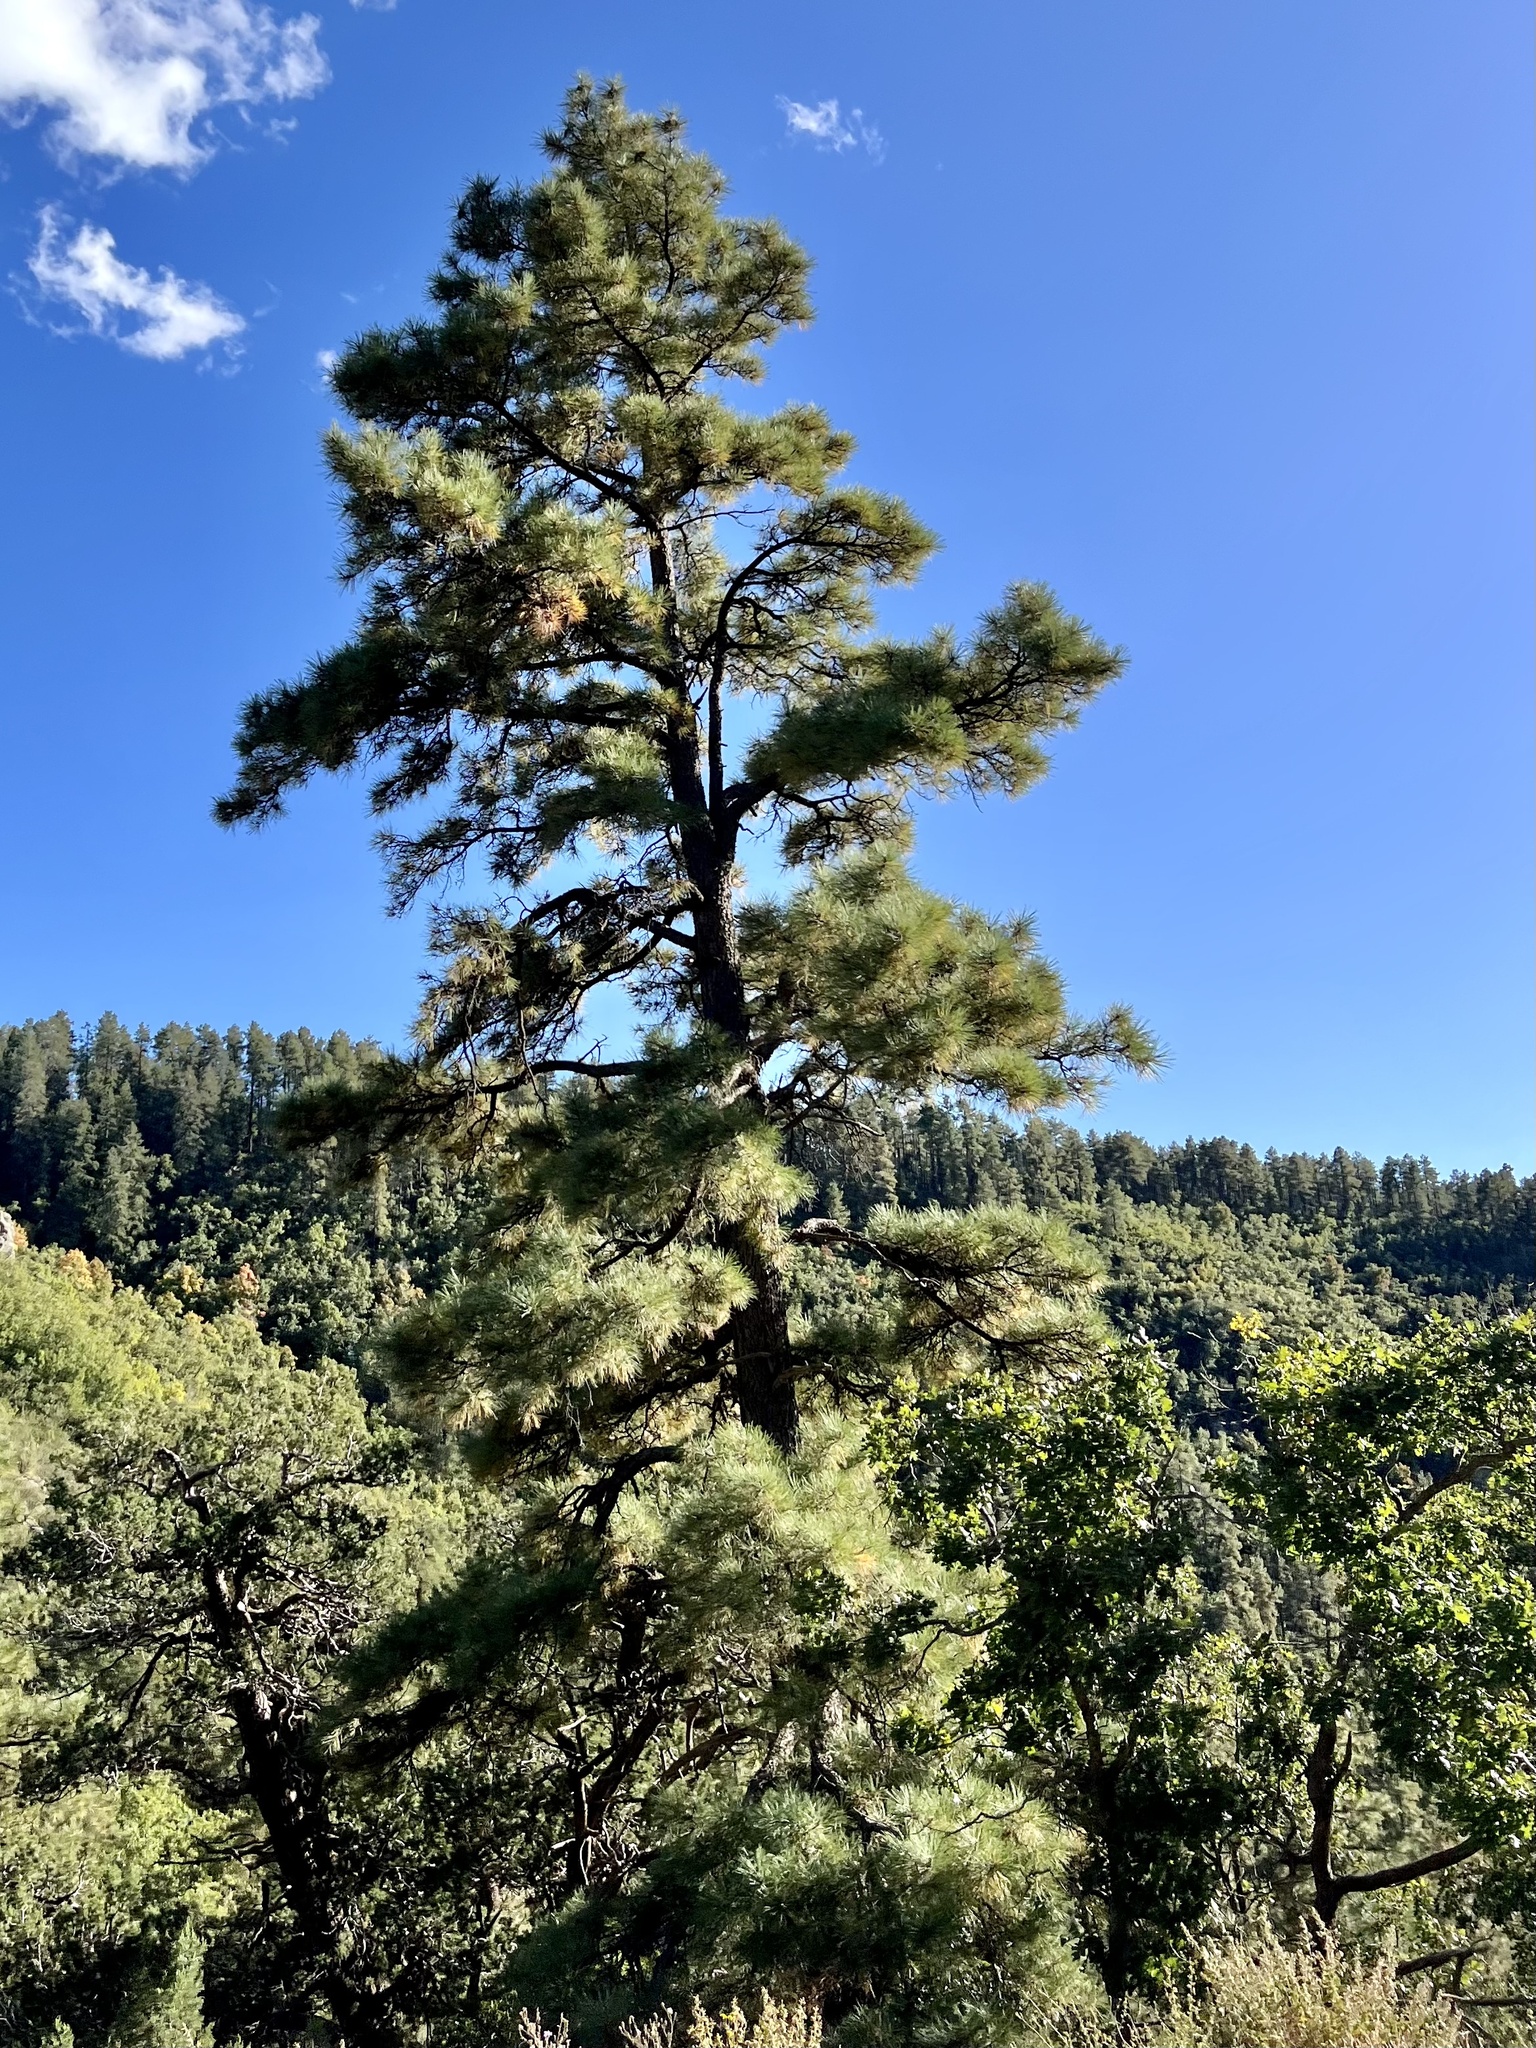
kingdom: Plantae
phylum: Tracheophyta
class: Pinopsida
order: Pinales
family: Pinaceae
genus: Pinus
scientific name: Pinus ponderosa
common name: Western yellow-pine
